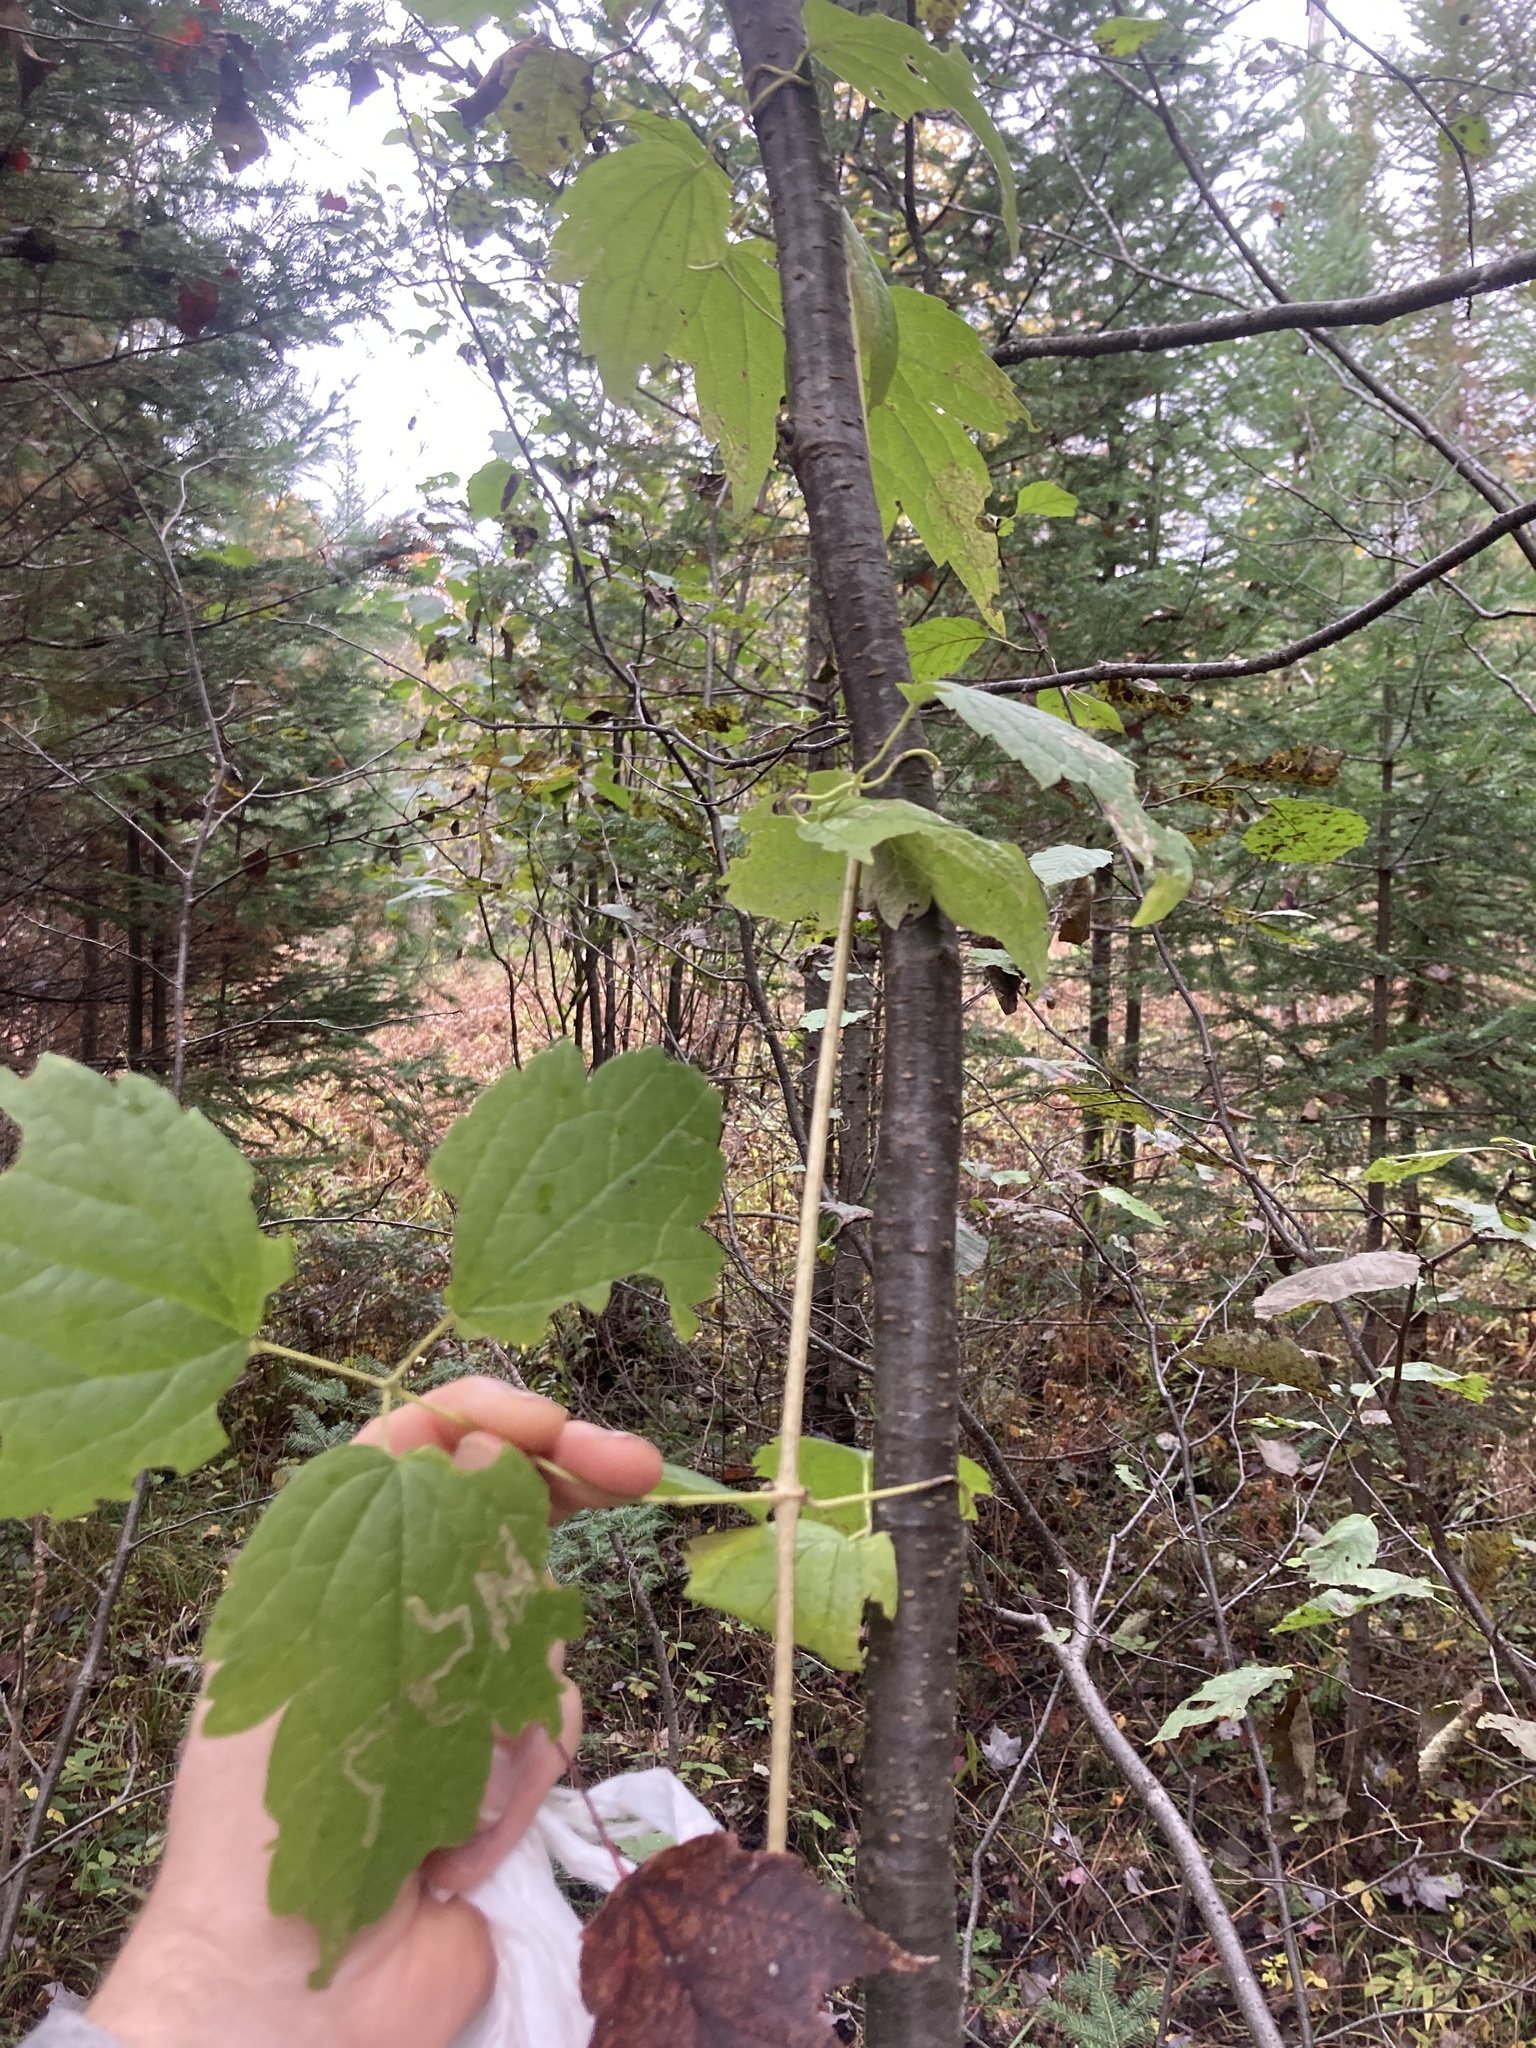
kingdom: Plantae
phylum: Tracheophyta
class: Magnoliopsida
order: Ranunculales
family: Ranunculaceae
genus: Clematis
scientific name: Clematis virginiana
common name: Virgin's-bower
